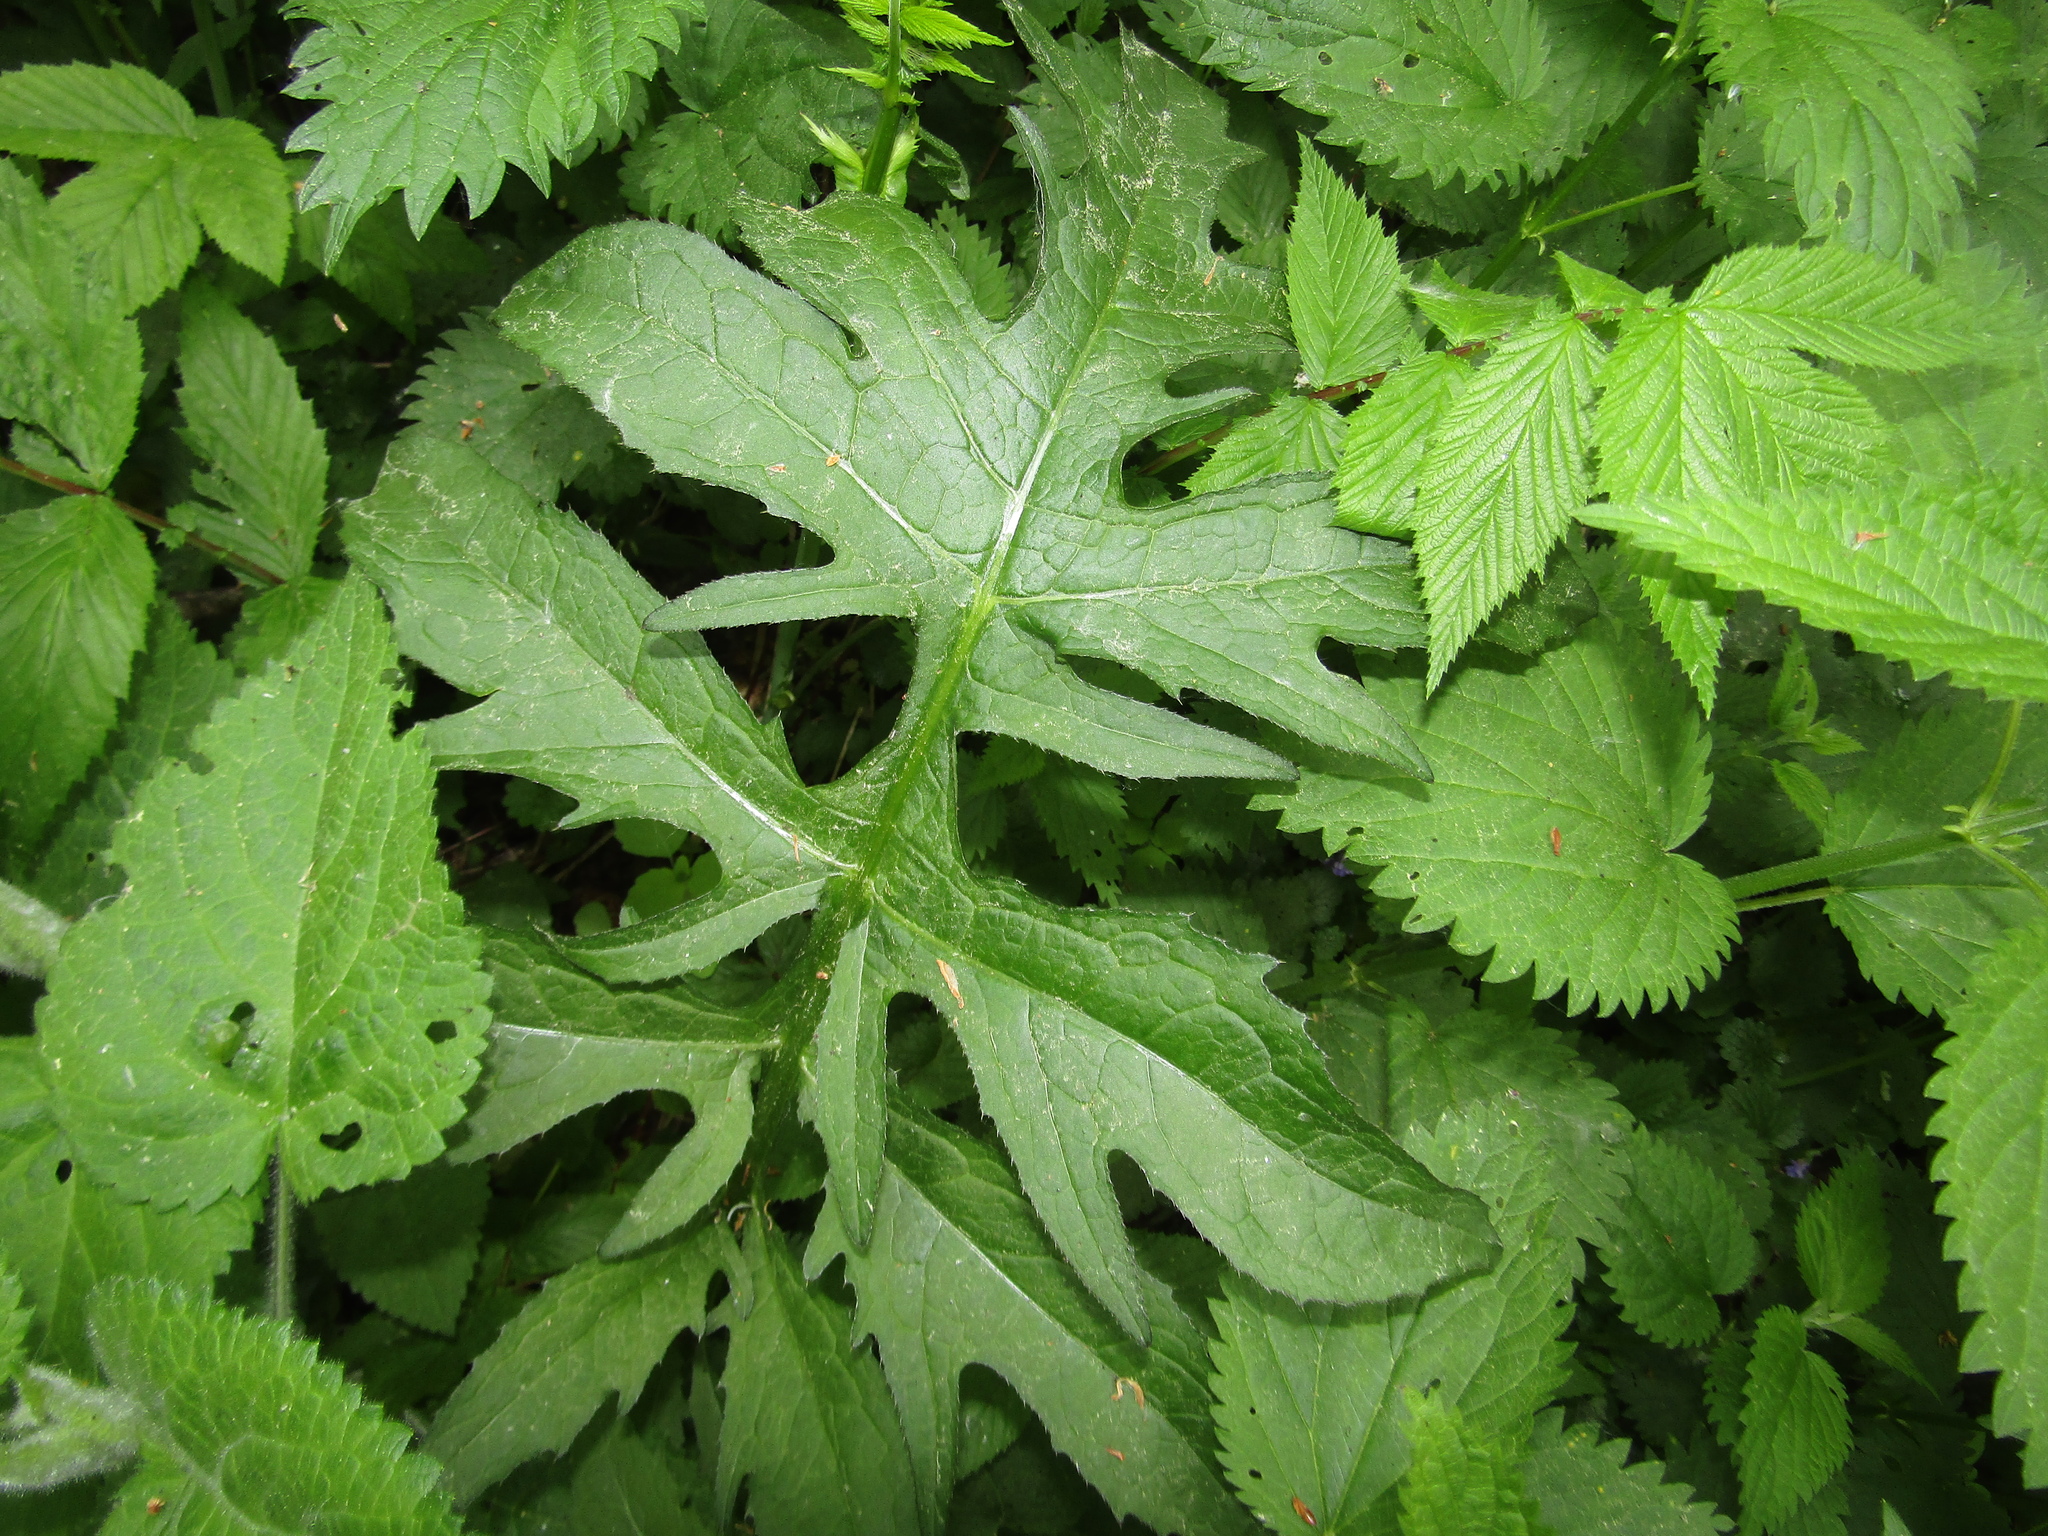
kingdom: Plantae
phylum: Tracheophyta
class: Magnoliopsida
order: Asterales
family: Asteraceae
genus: Cirsium
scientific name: Cirsium oleraceum
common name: Cabbage thistle
